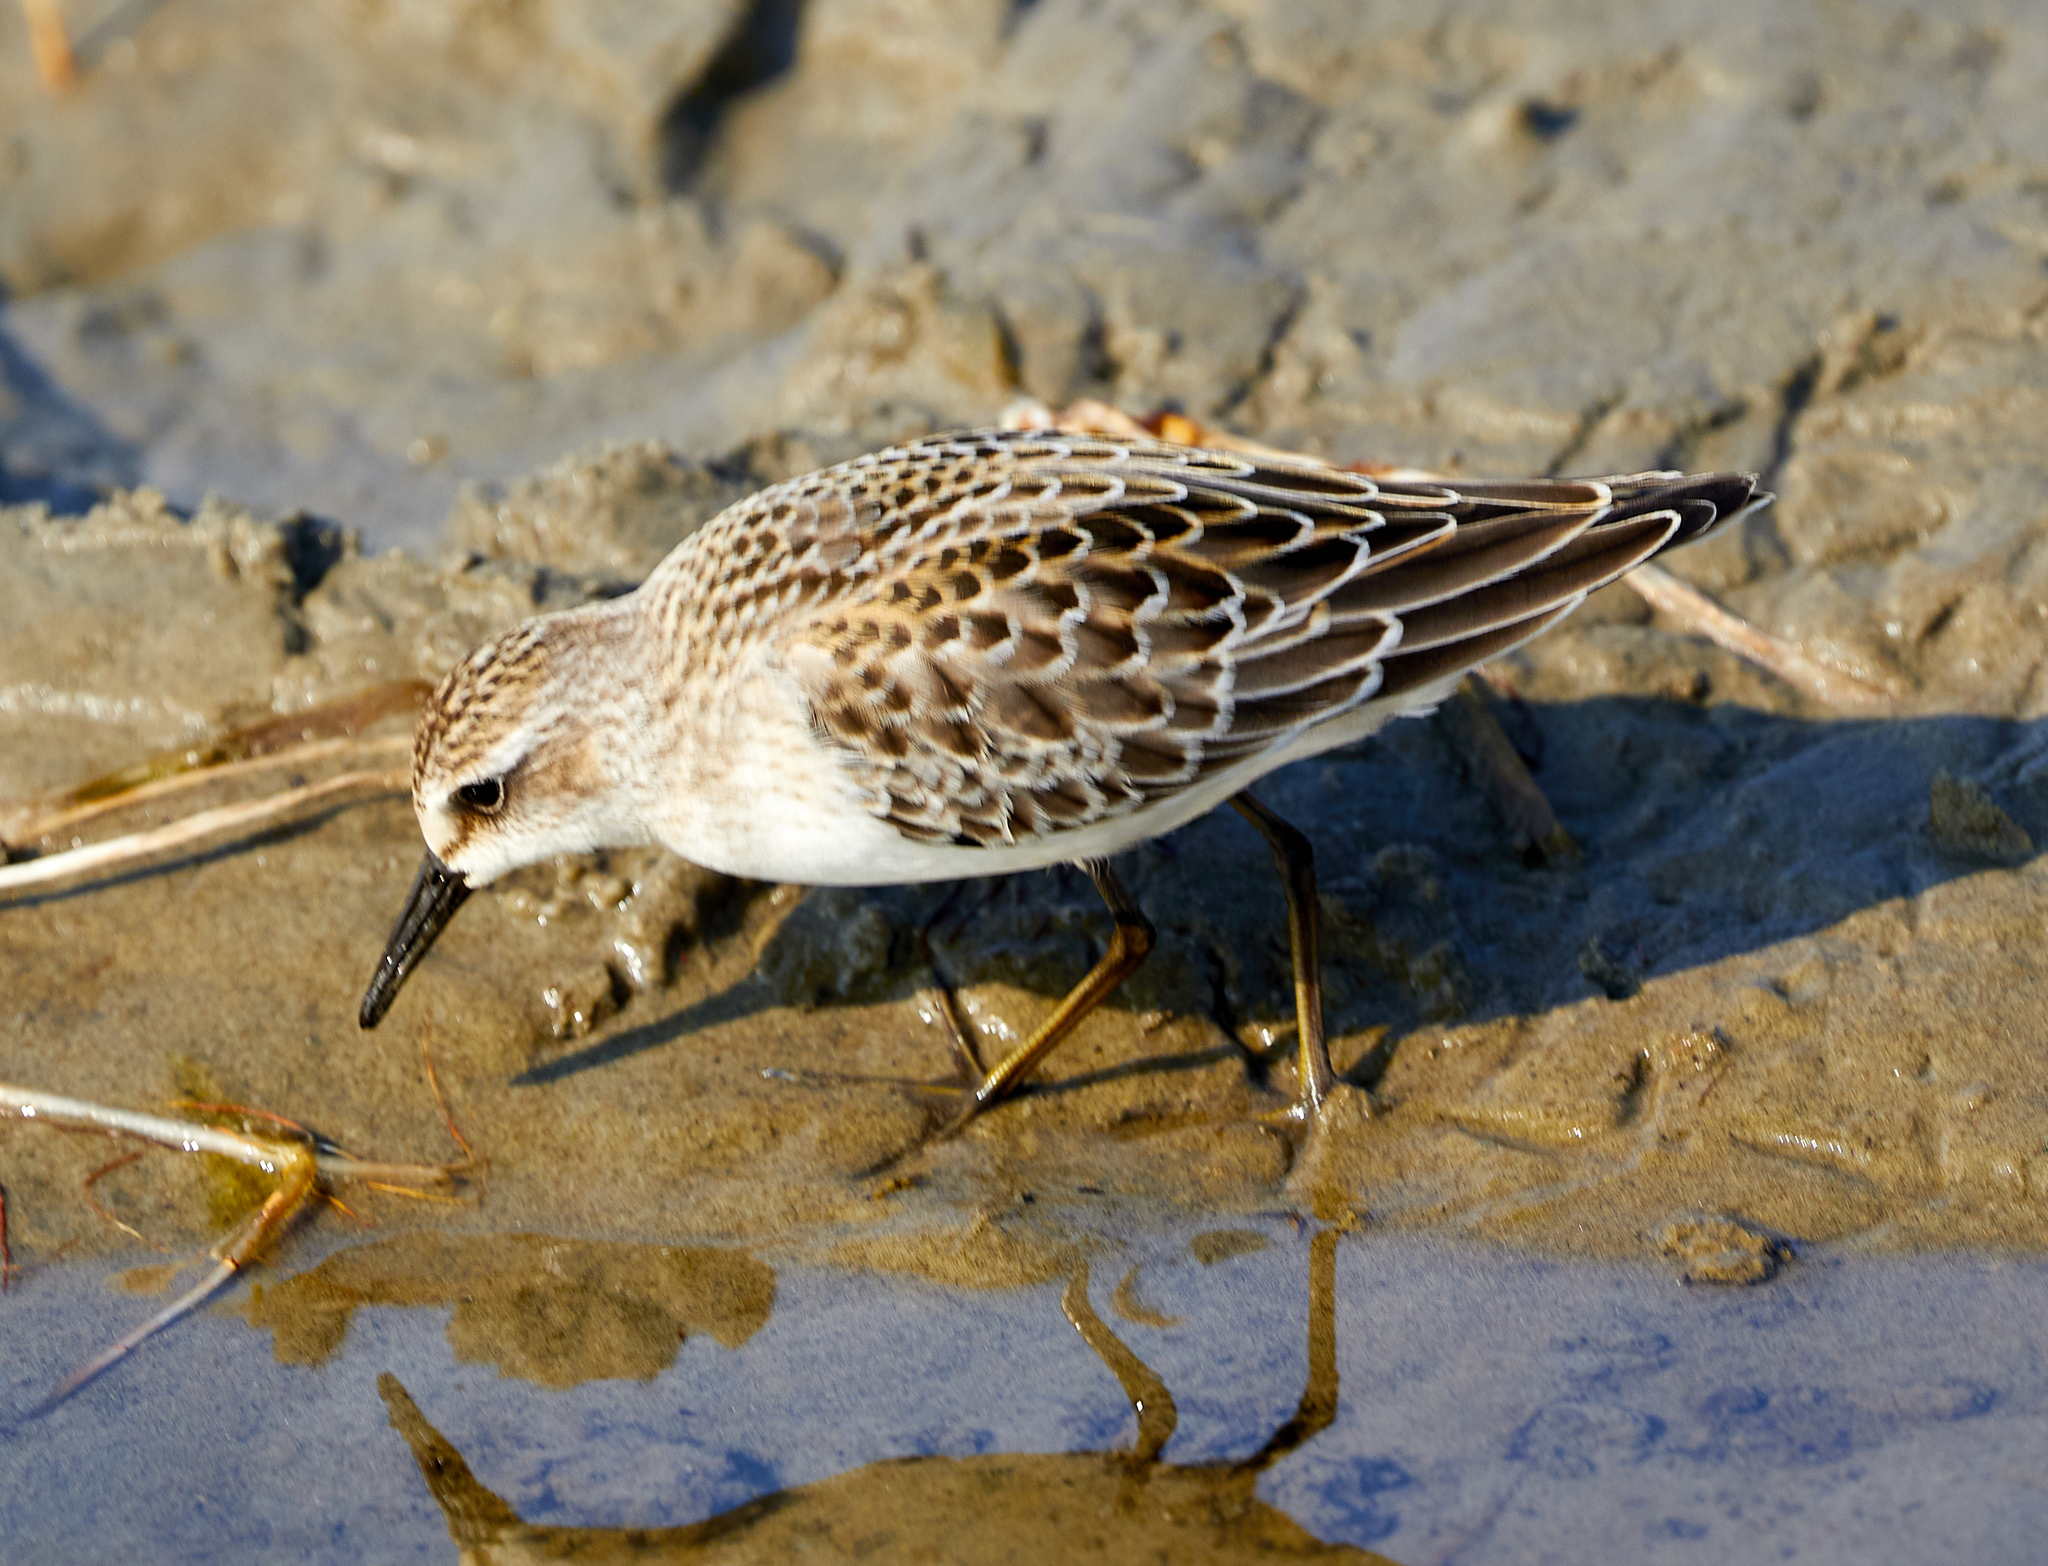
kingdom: Animalia
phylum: Chordata
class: Aves
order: Charadriiformes
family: Scolopacidae
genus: Calidris
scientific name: Calidris pusilla
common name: Semipalmated sandpiper
